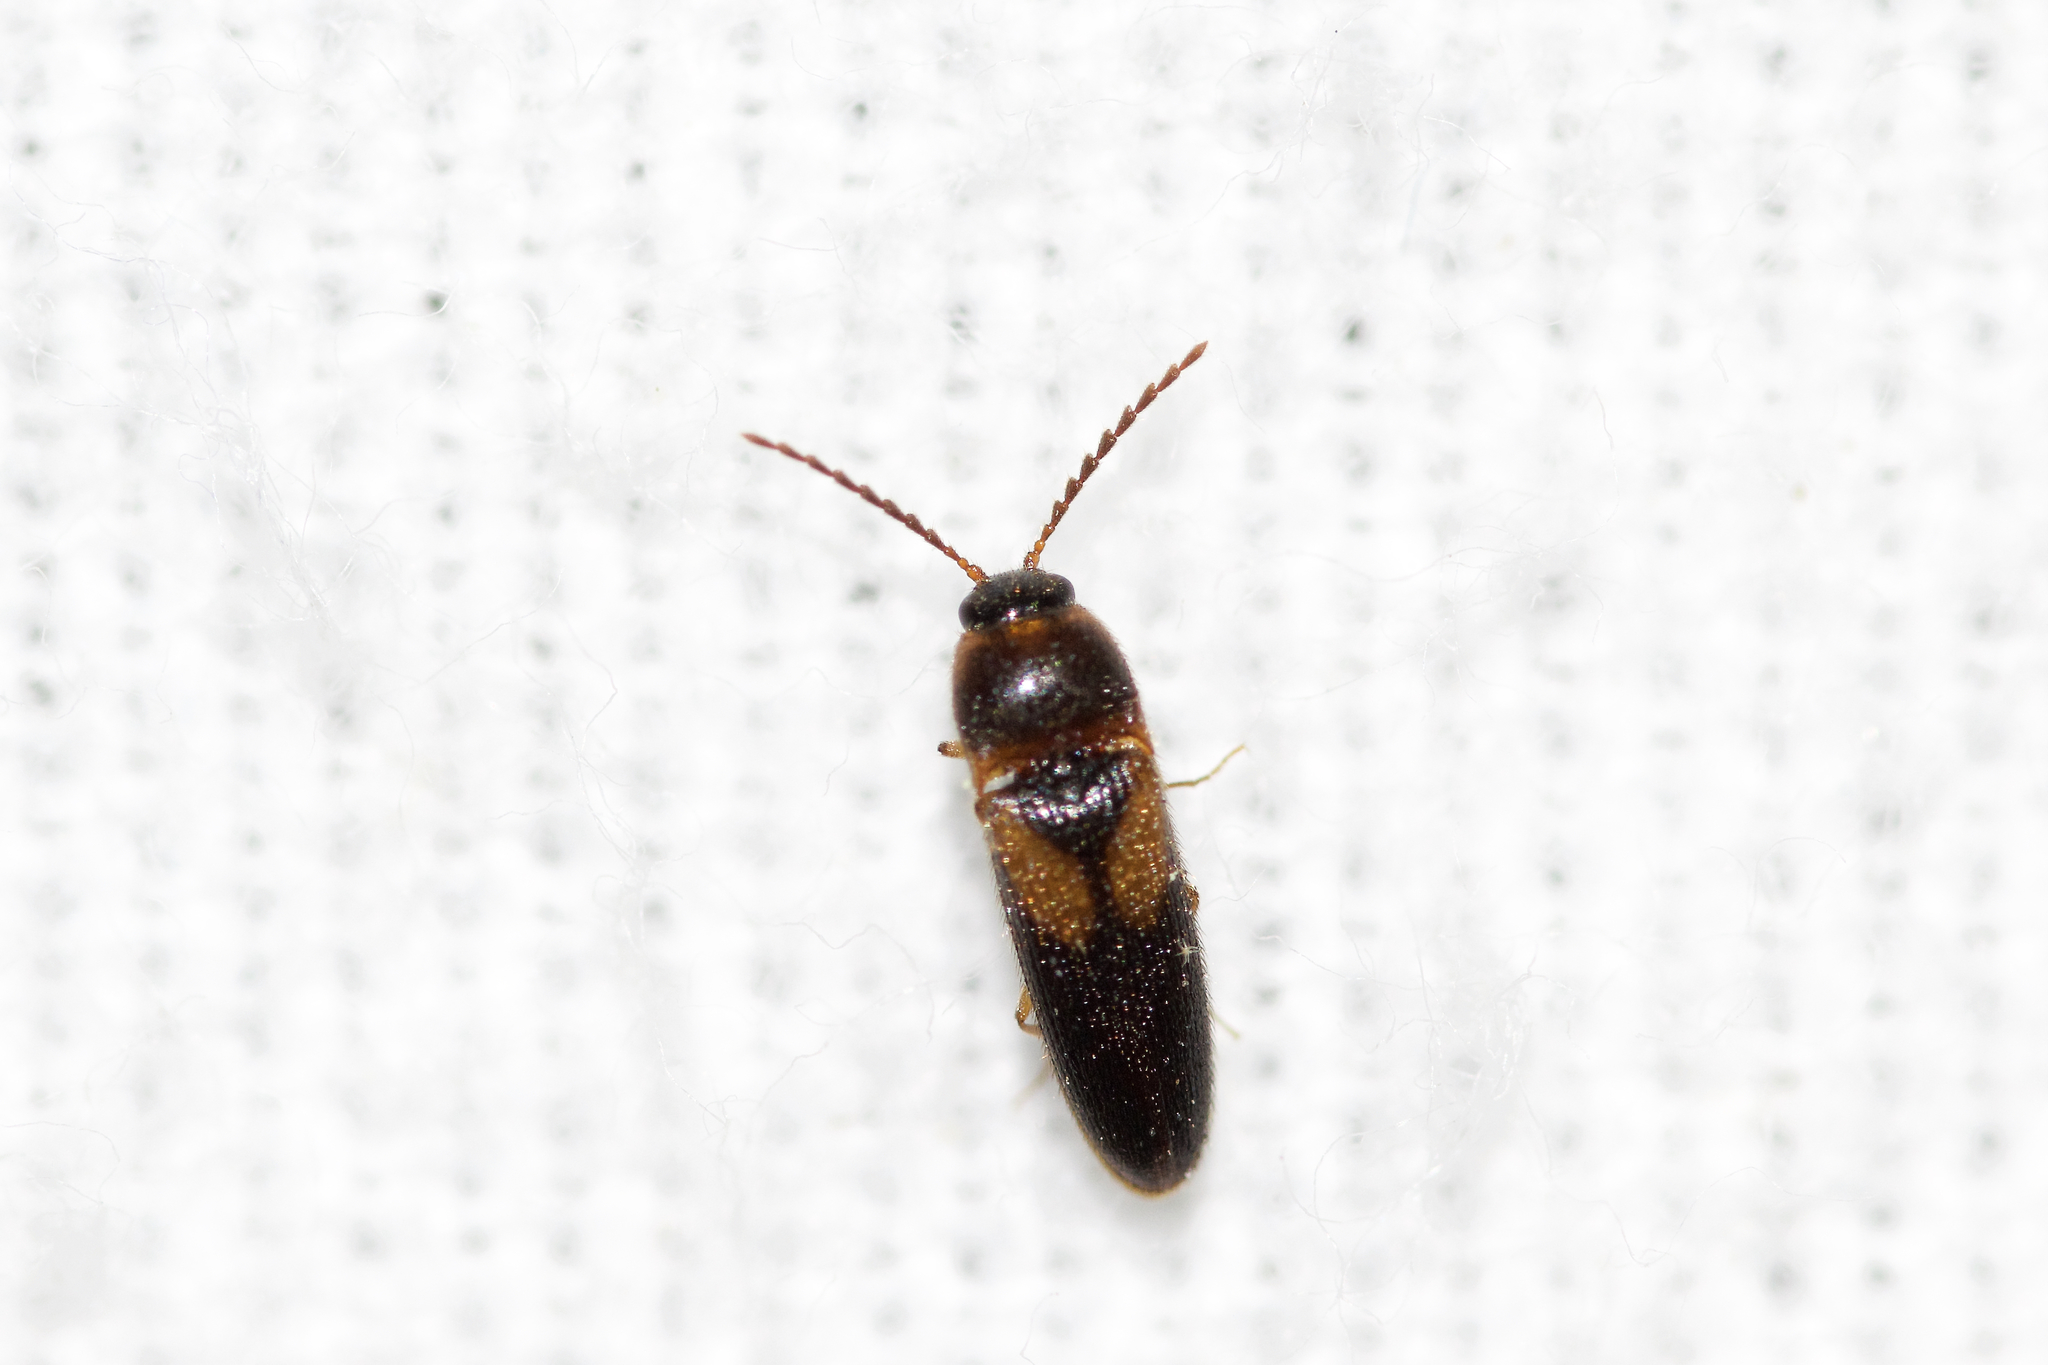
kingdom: Animalia
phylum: Arthropoda
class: Insecta
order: Coleoptera
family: Elateridae
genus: Ampedus
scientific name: Ampedus areolatus
